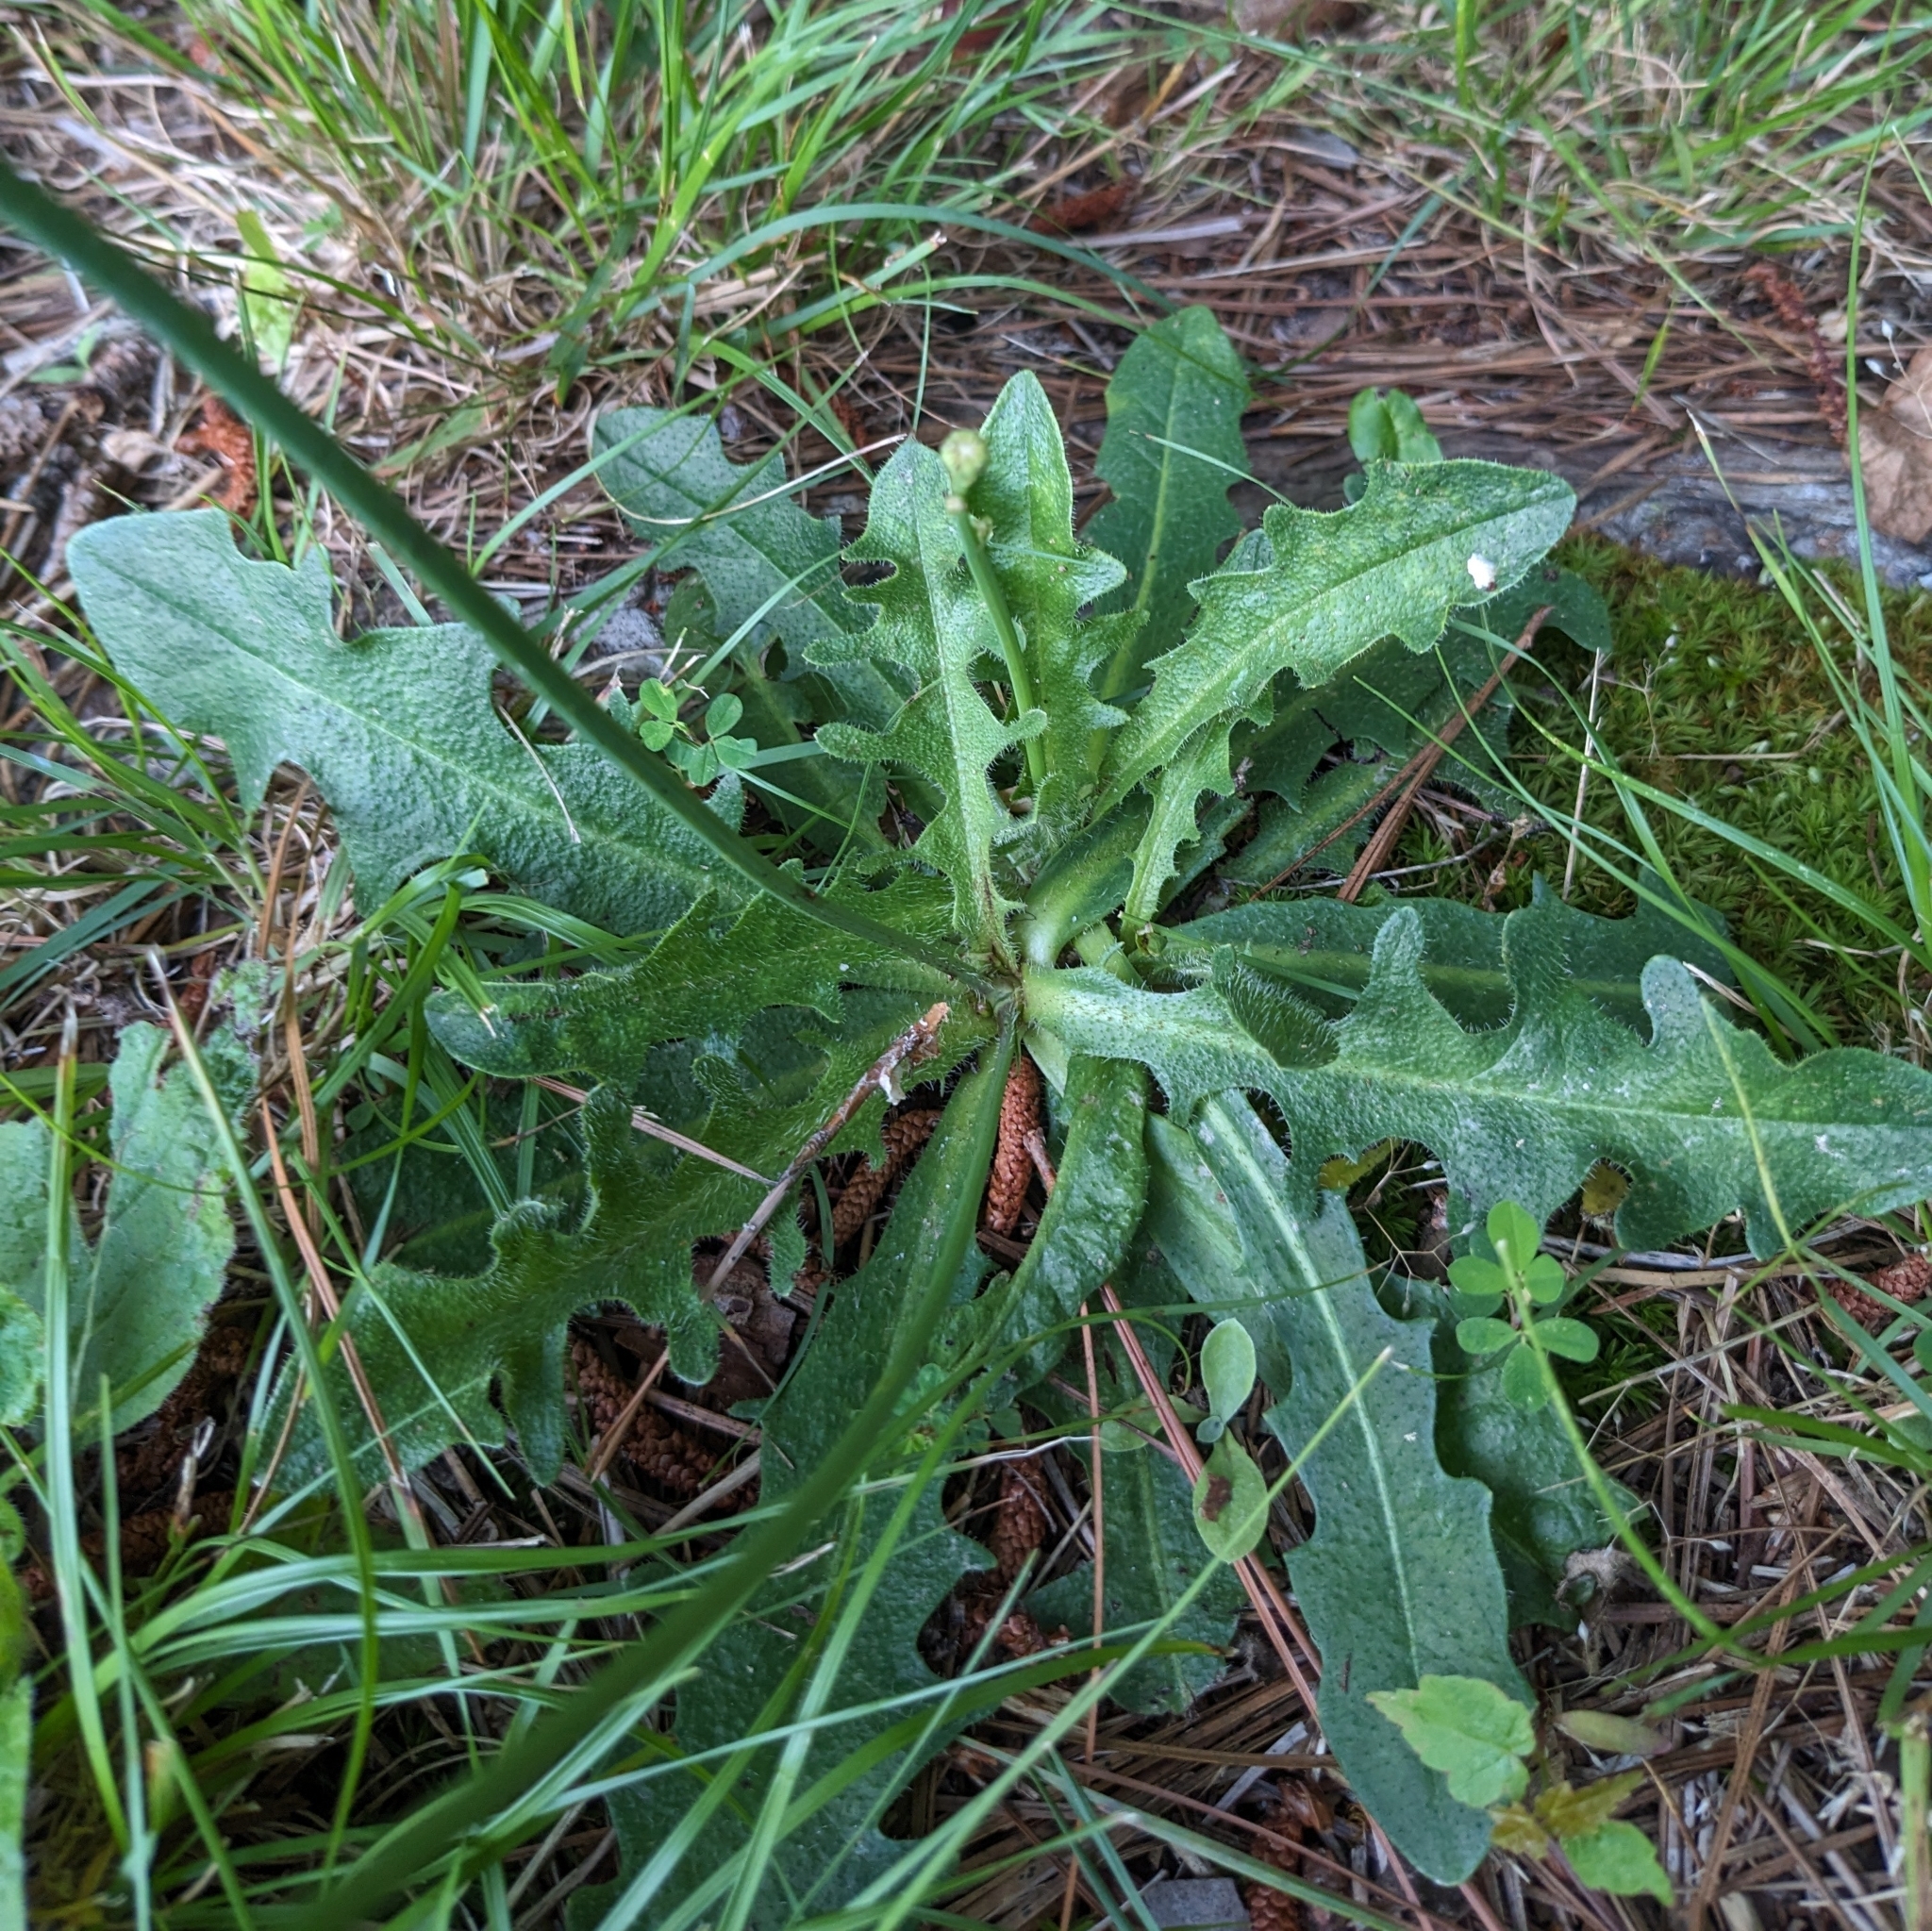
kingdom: Plantae
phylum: Tracheophyta
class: Magnoliopsida
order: Asterales
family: Asteraceae
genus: Hypochaeris
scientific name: Hypochaeris radicata
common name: Flatweed
